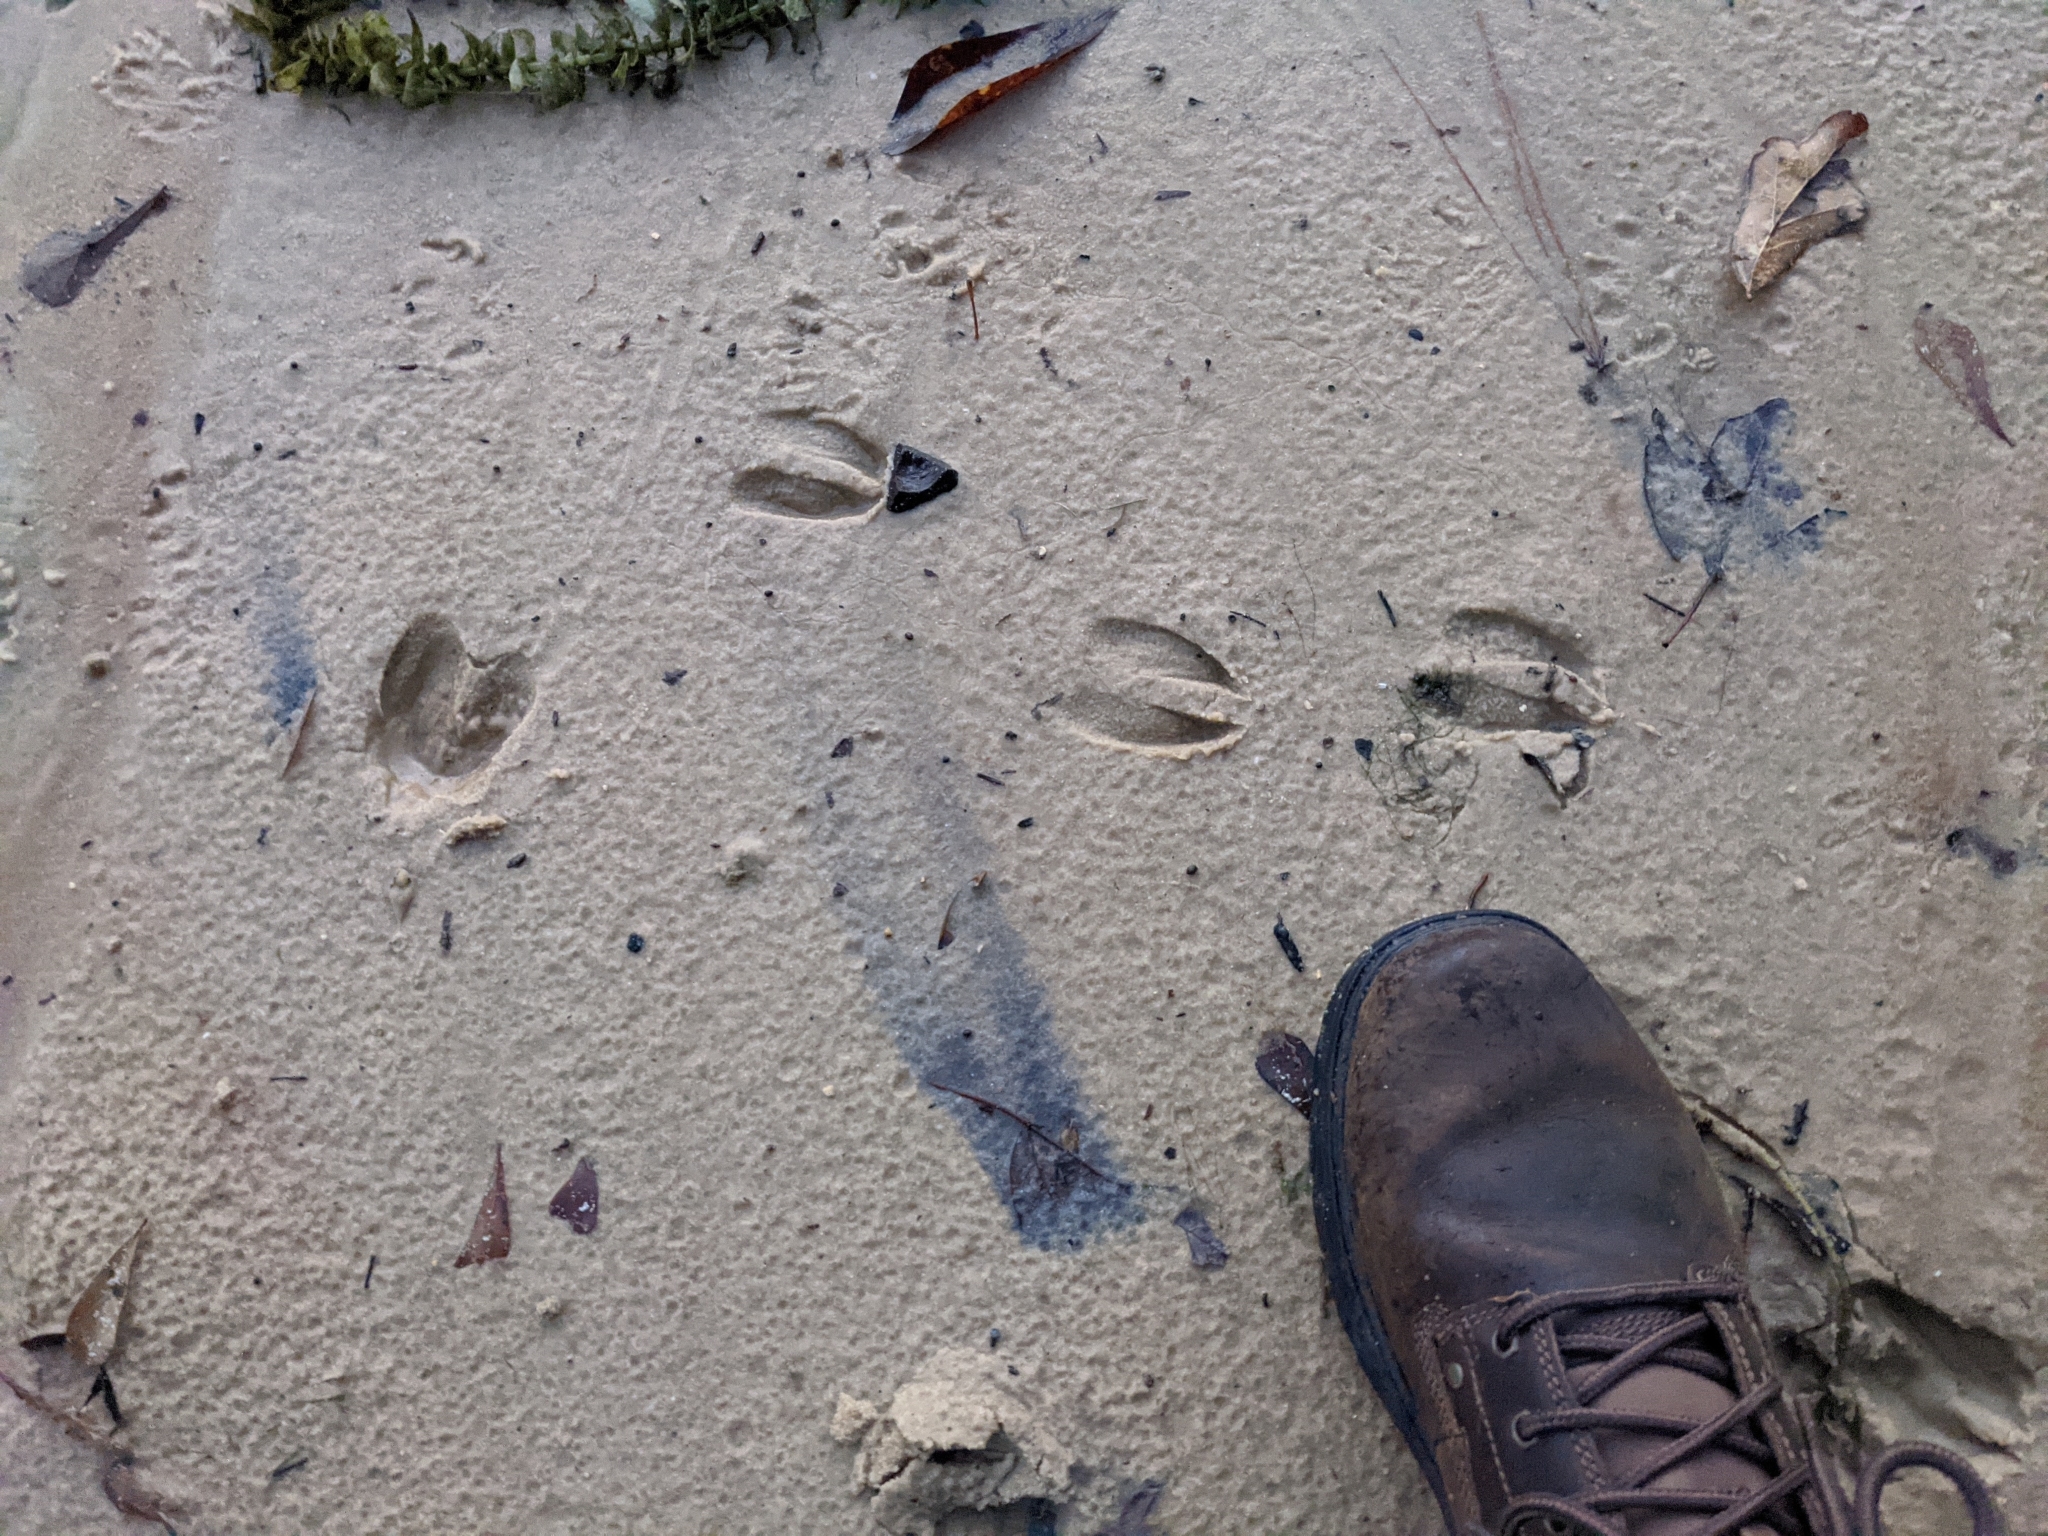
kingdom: Animalia
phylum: Chordata
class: Mammalia
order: Artiodactyla
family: Cervidae
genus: Odocoileus
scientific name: Odocoileus virginianus
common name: White-tailed deer
